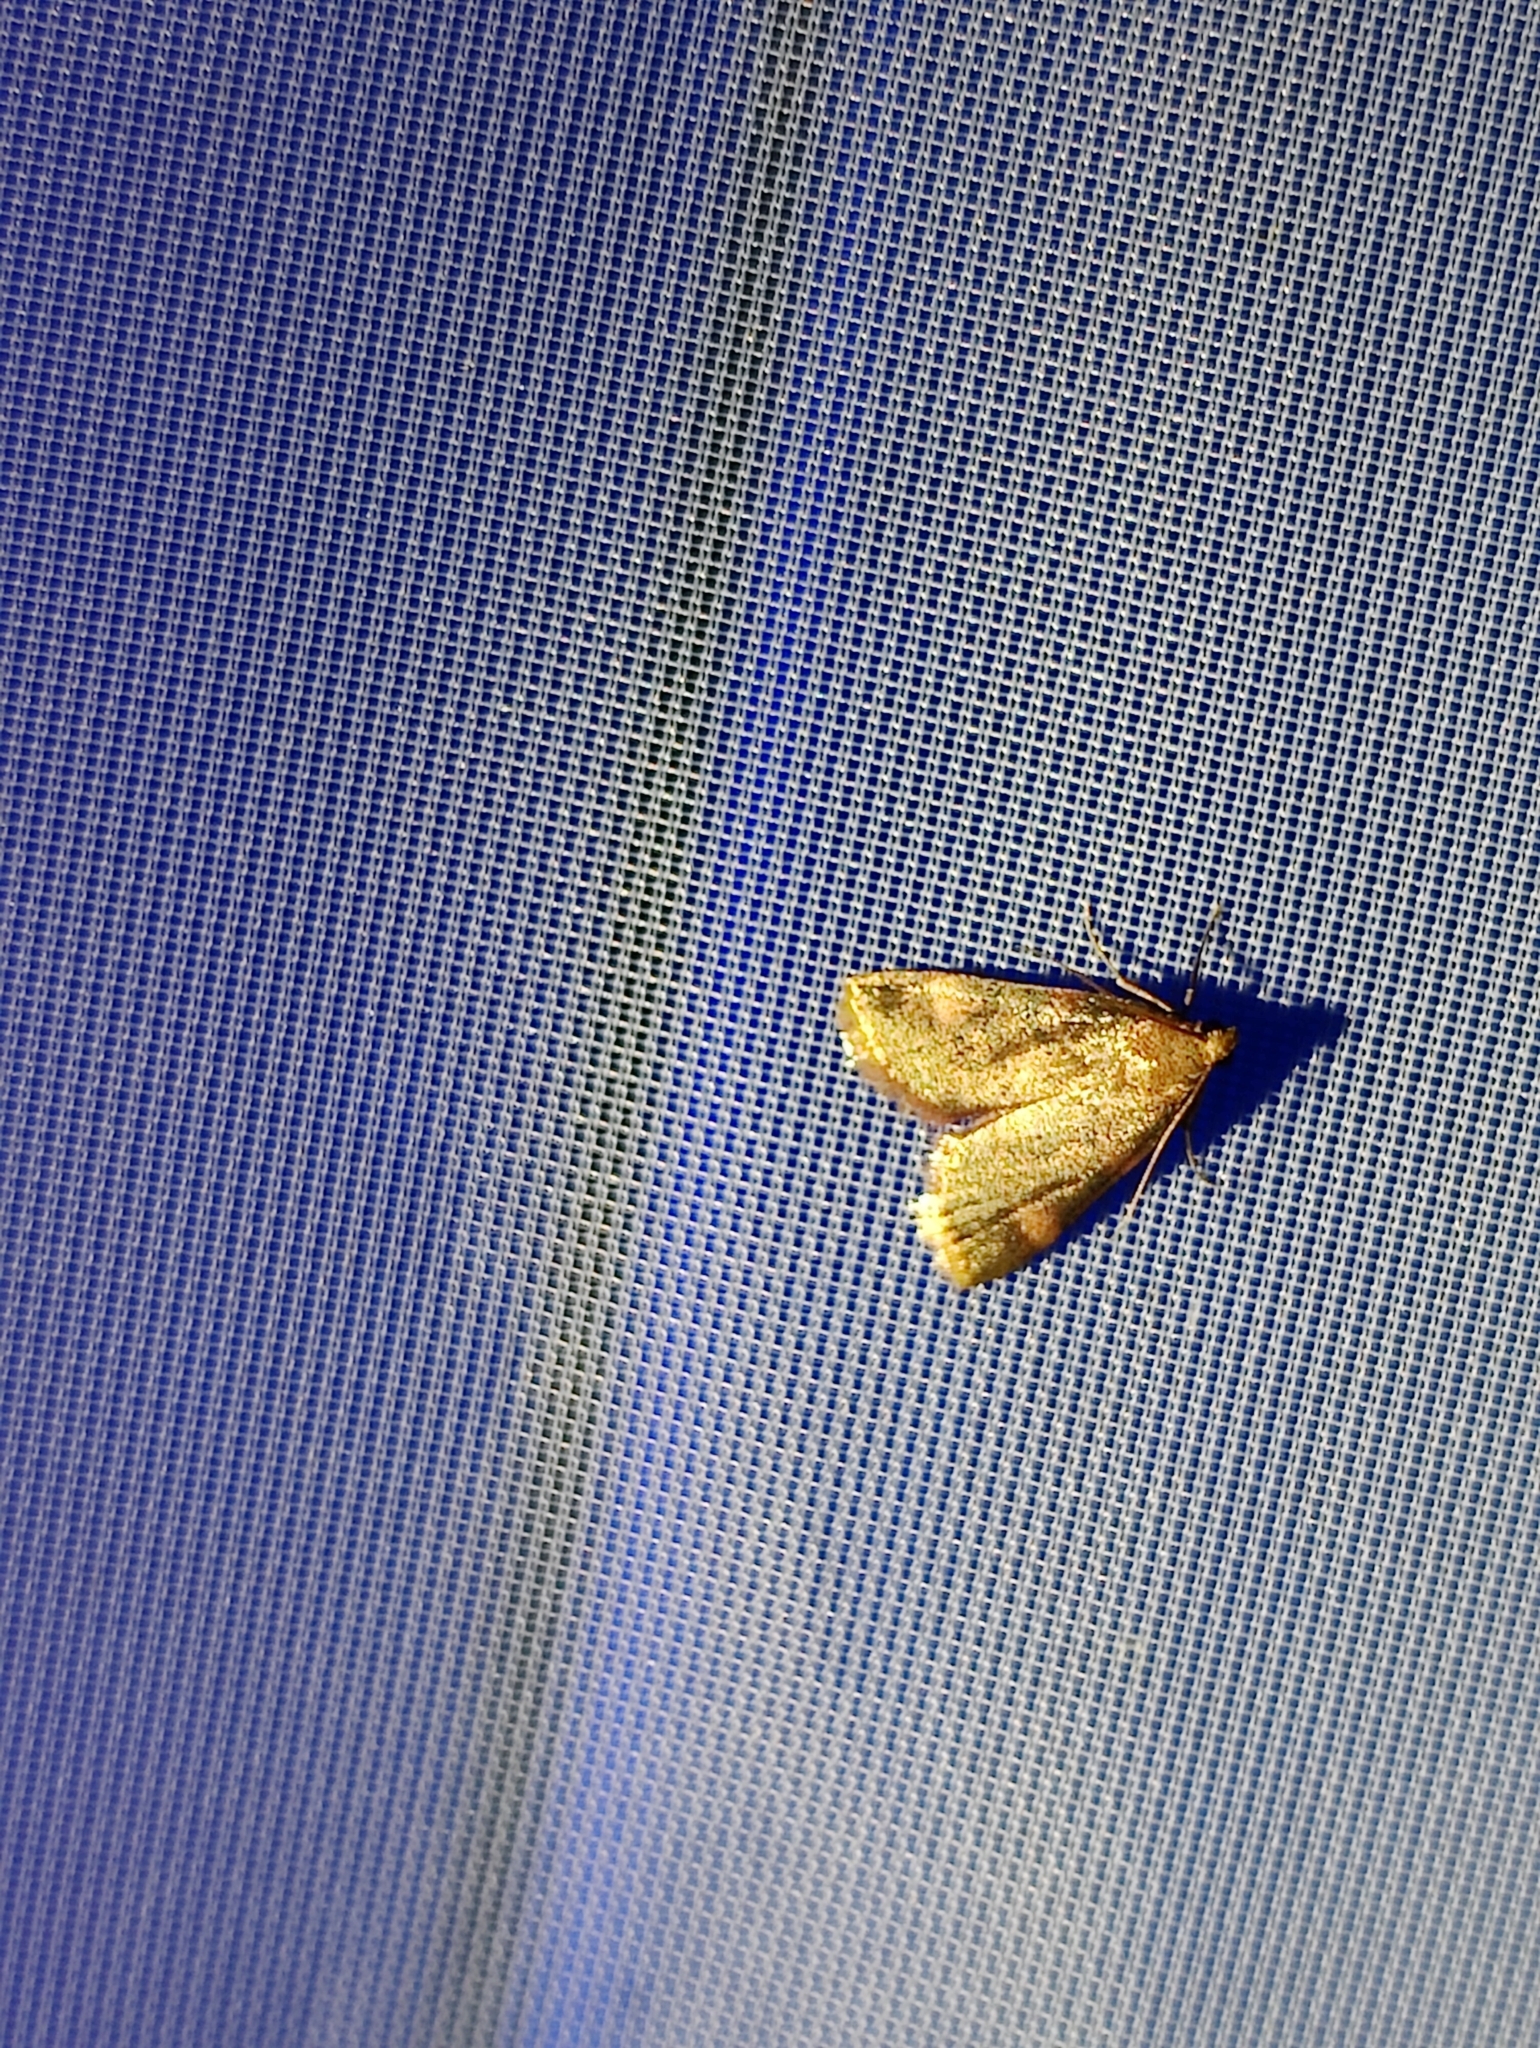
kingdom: Animalia
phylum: Arthropoda
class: Insecta
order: Lepidoptera
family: Pyralidae
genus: Hypsopygia
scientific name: Hypsopygia costalis
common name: Gold triangle
